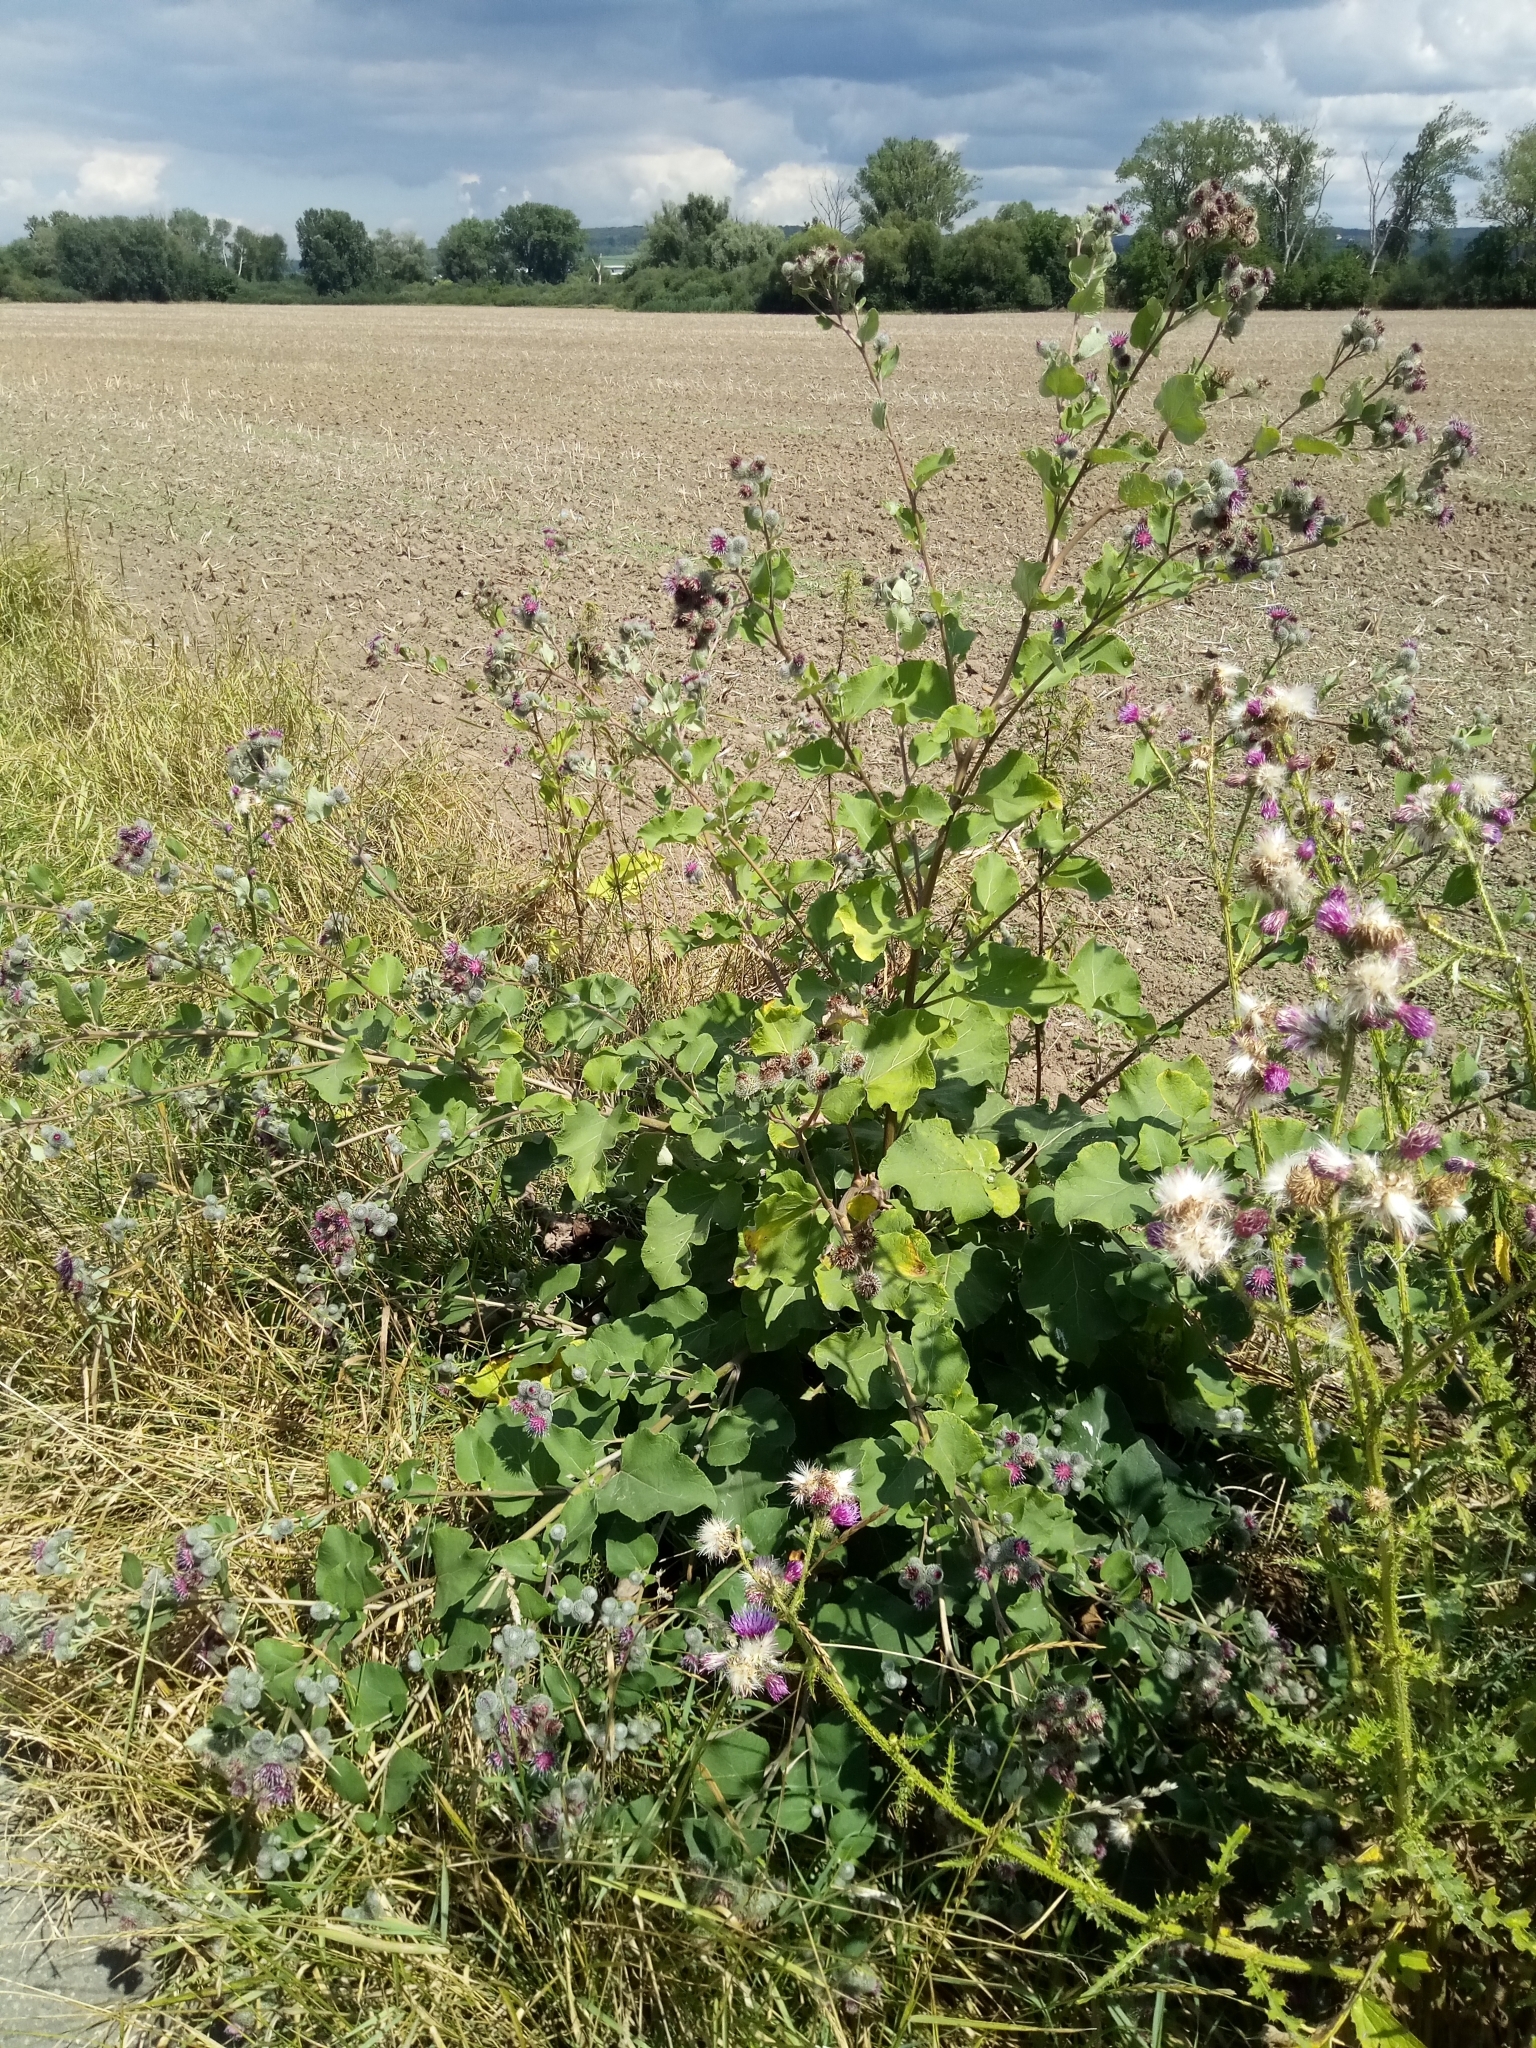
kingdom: Plantae
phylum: Tracheophyta
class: Magnoliopsida
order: Asterales
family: Asteraceae
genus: Arctium
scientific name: Arctium tomentosum
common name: Woolly burdock
